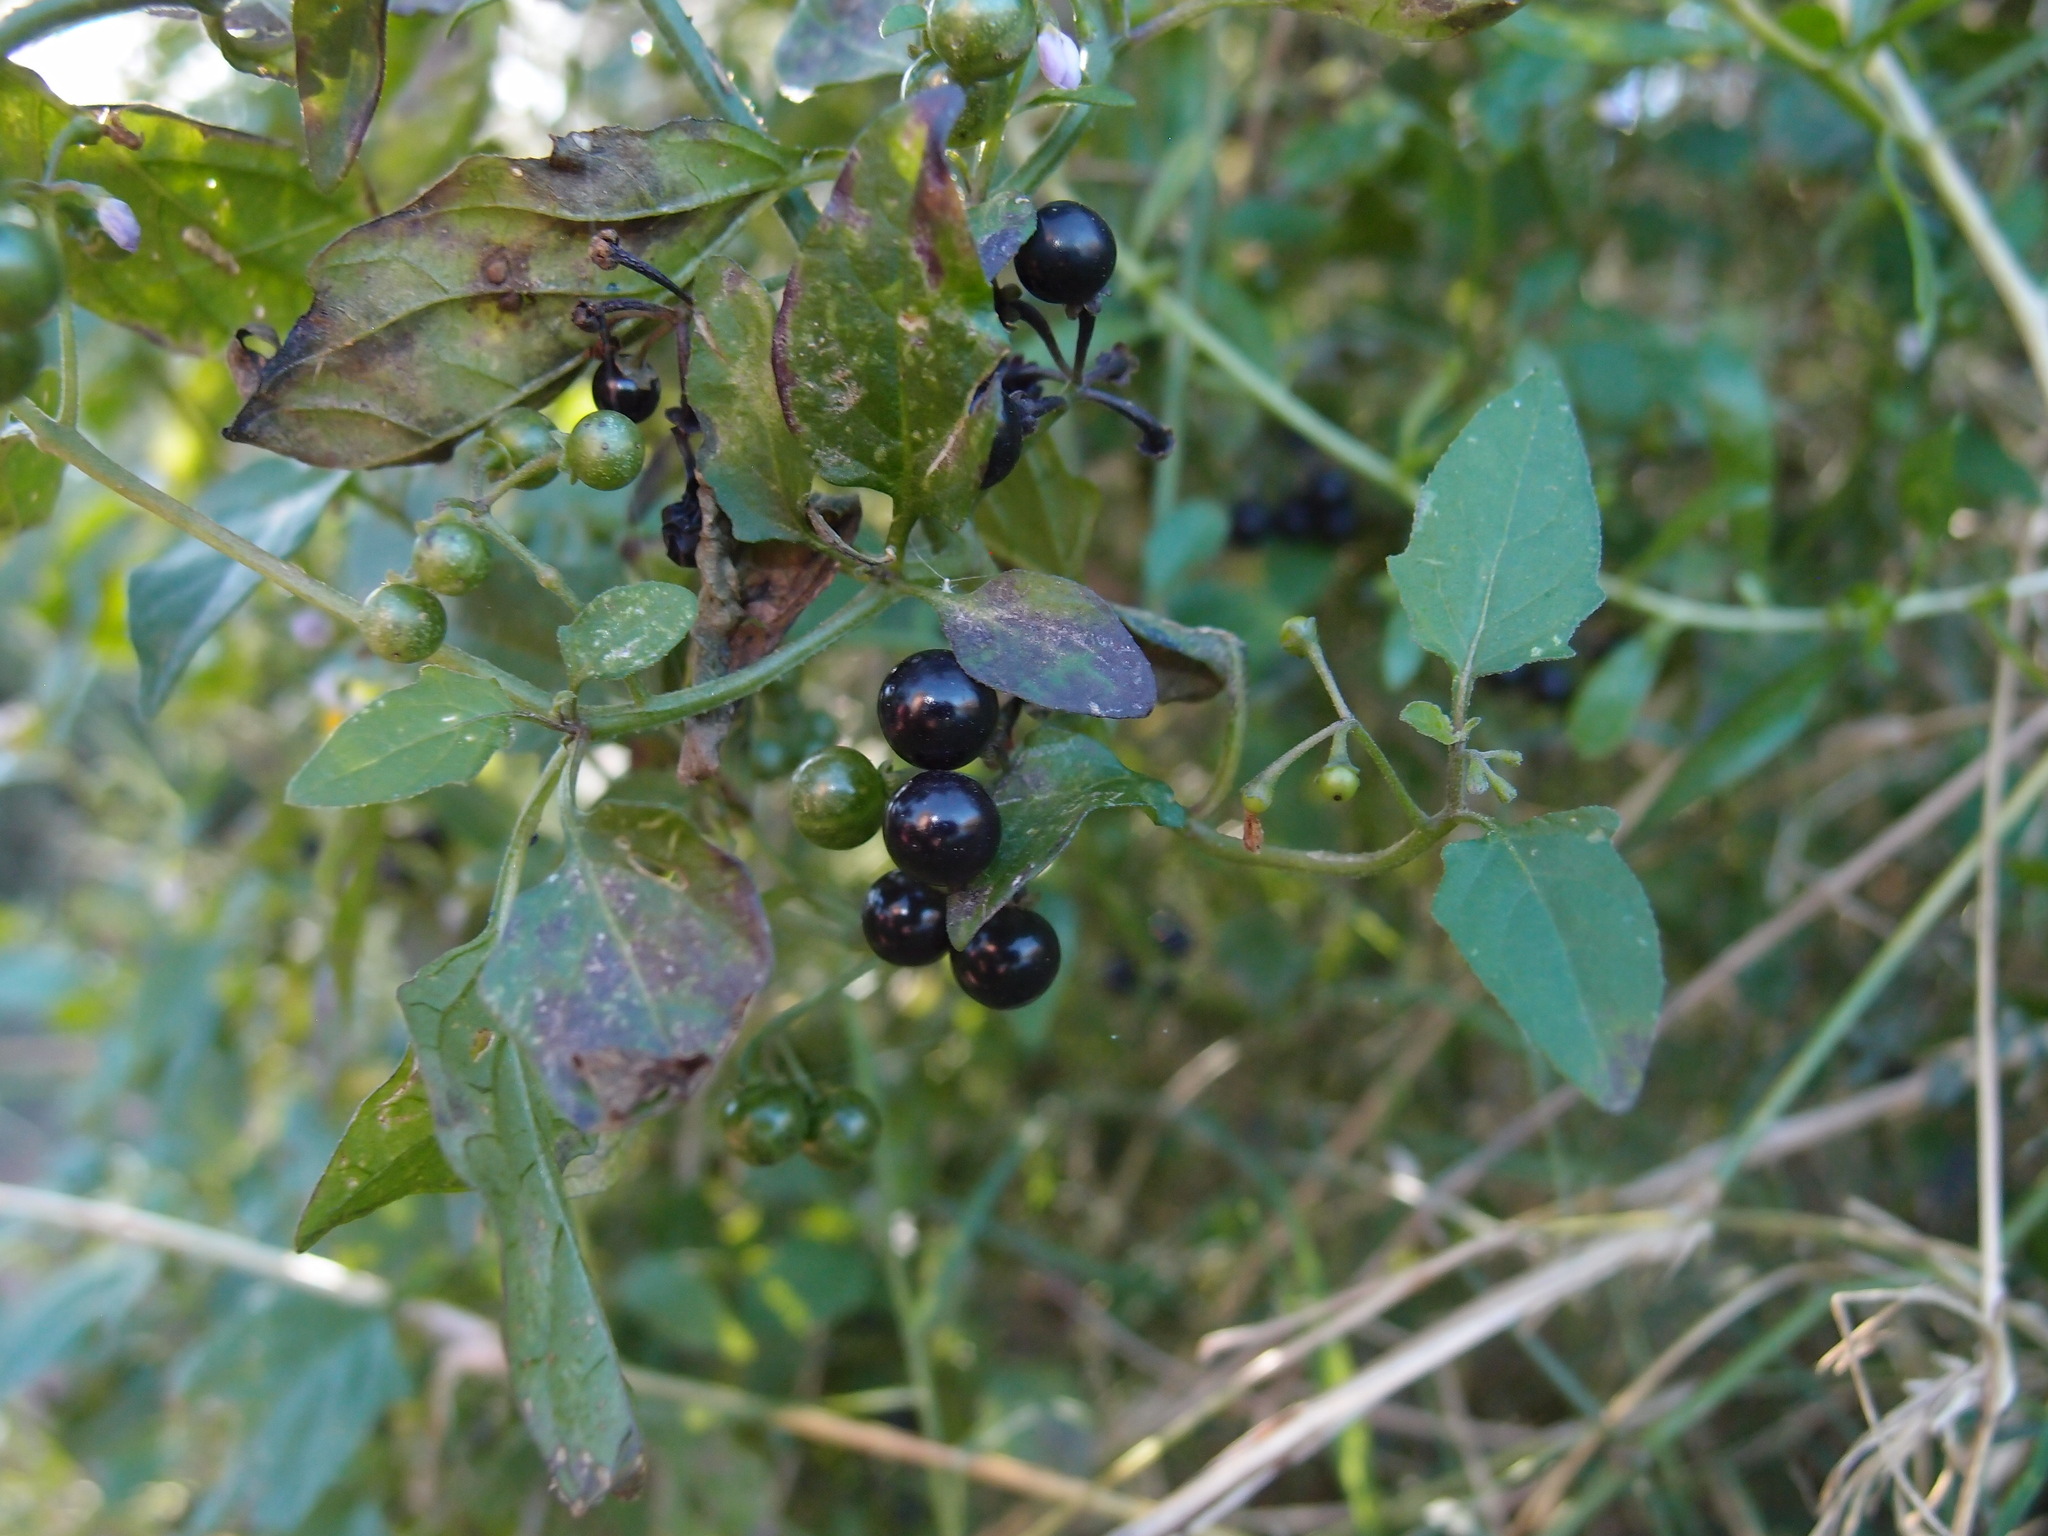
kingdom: Plantae
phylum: Tracheophyta
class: Magnoliopsida
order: Solanales
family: Solanaceae
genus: Solanum
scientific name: Solanum americanum
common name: American black nightshade
